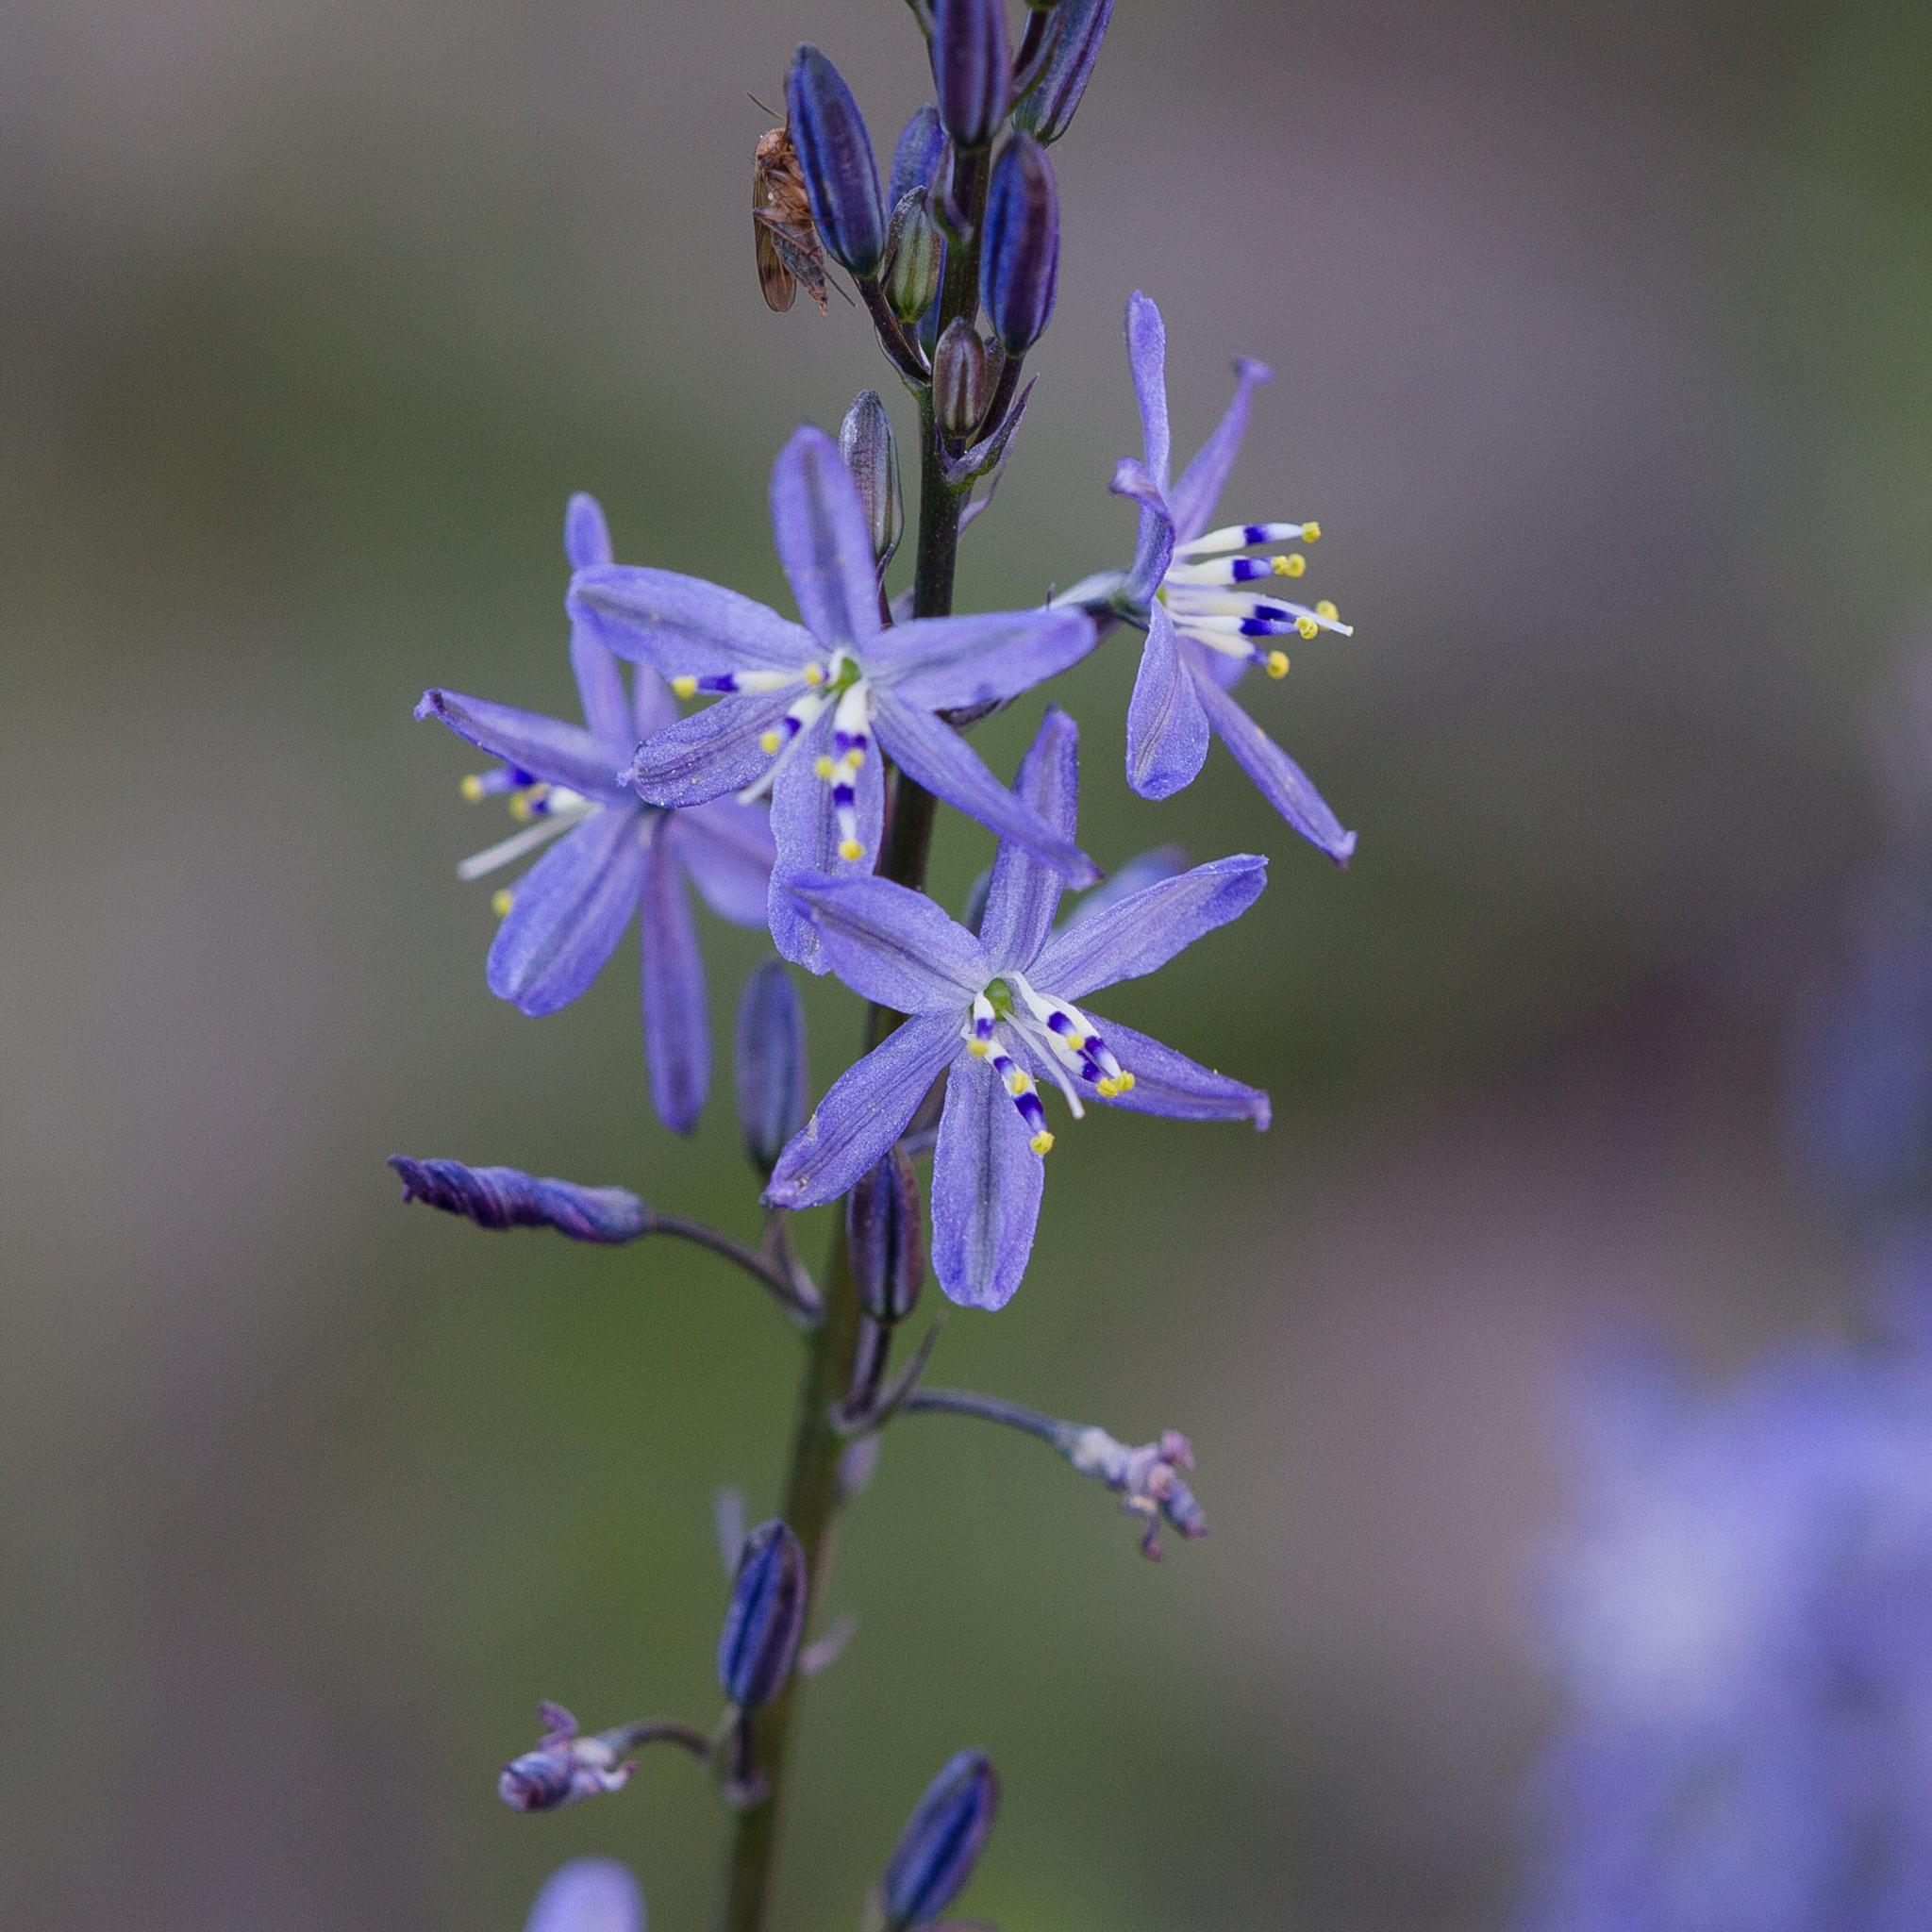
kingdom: Plantae
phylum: Tracheophyta
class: Liliopsida
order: Asparagales
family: Asphodelaceae
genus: Caesia
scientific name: Caesia calliantha
